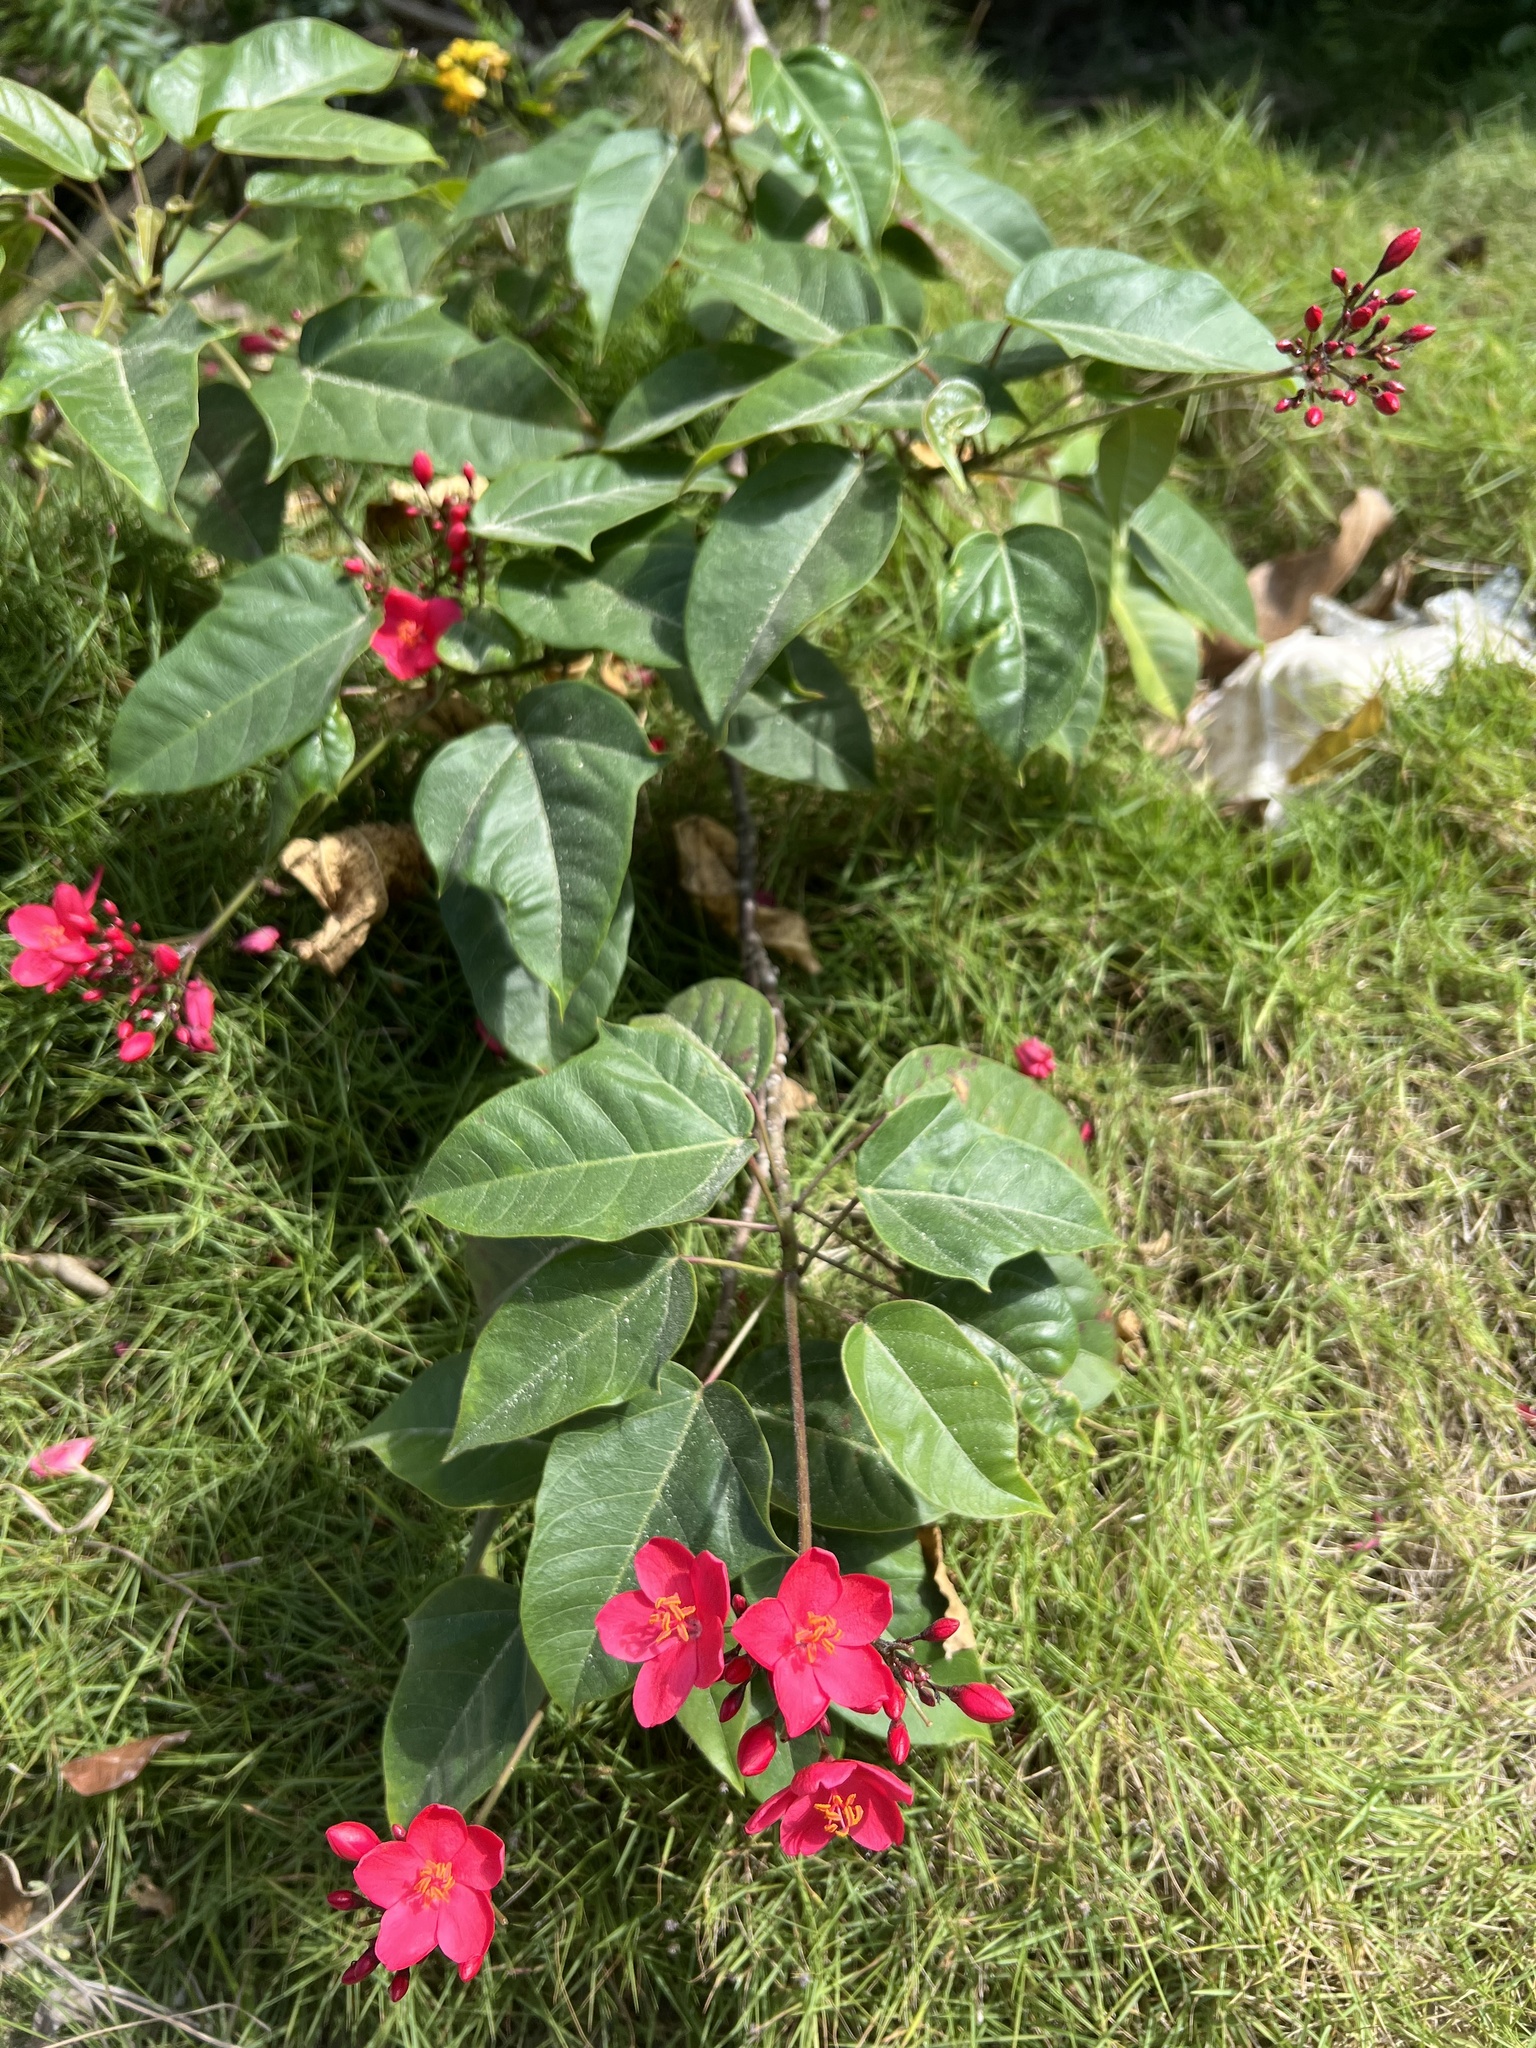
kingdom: Plantae
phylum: Tracheophyta
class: Magnoliopsida
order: Malpighiales
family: Euphorbiaceae
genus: Jatropha
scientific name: Jatropha integerrima
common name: Peregrina
